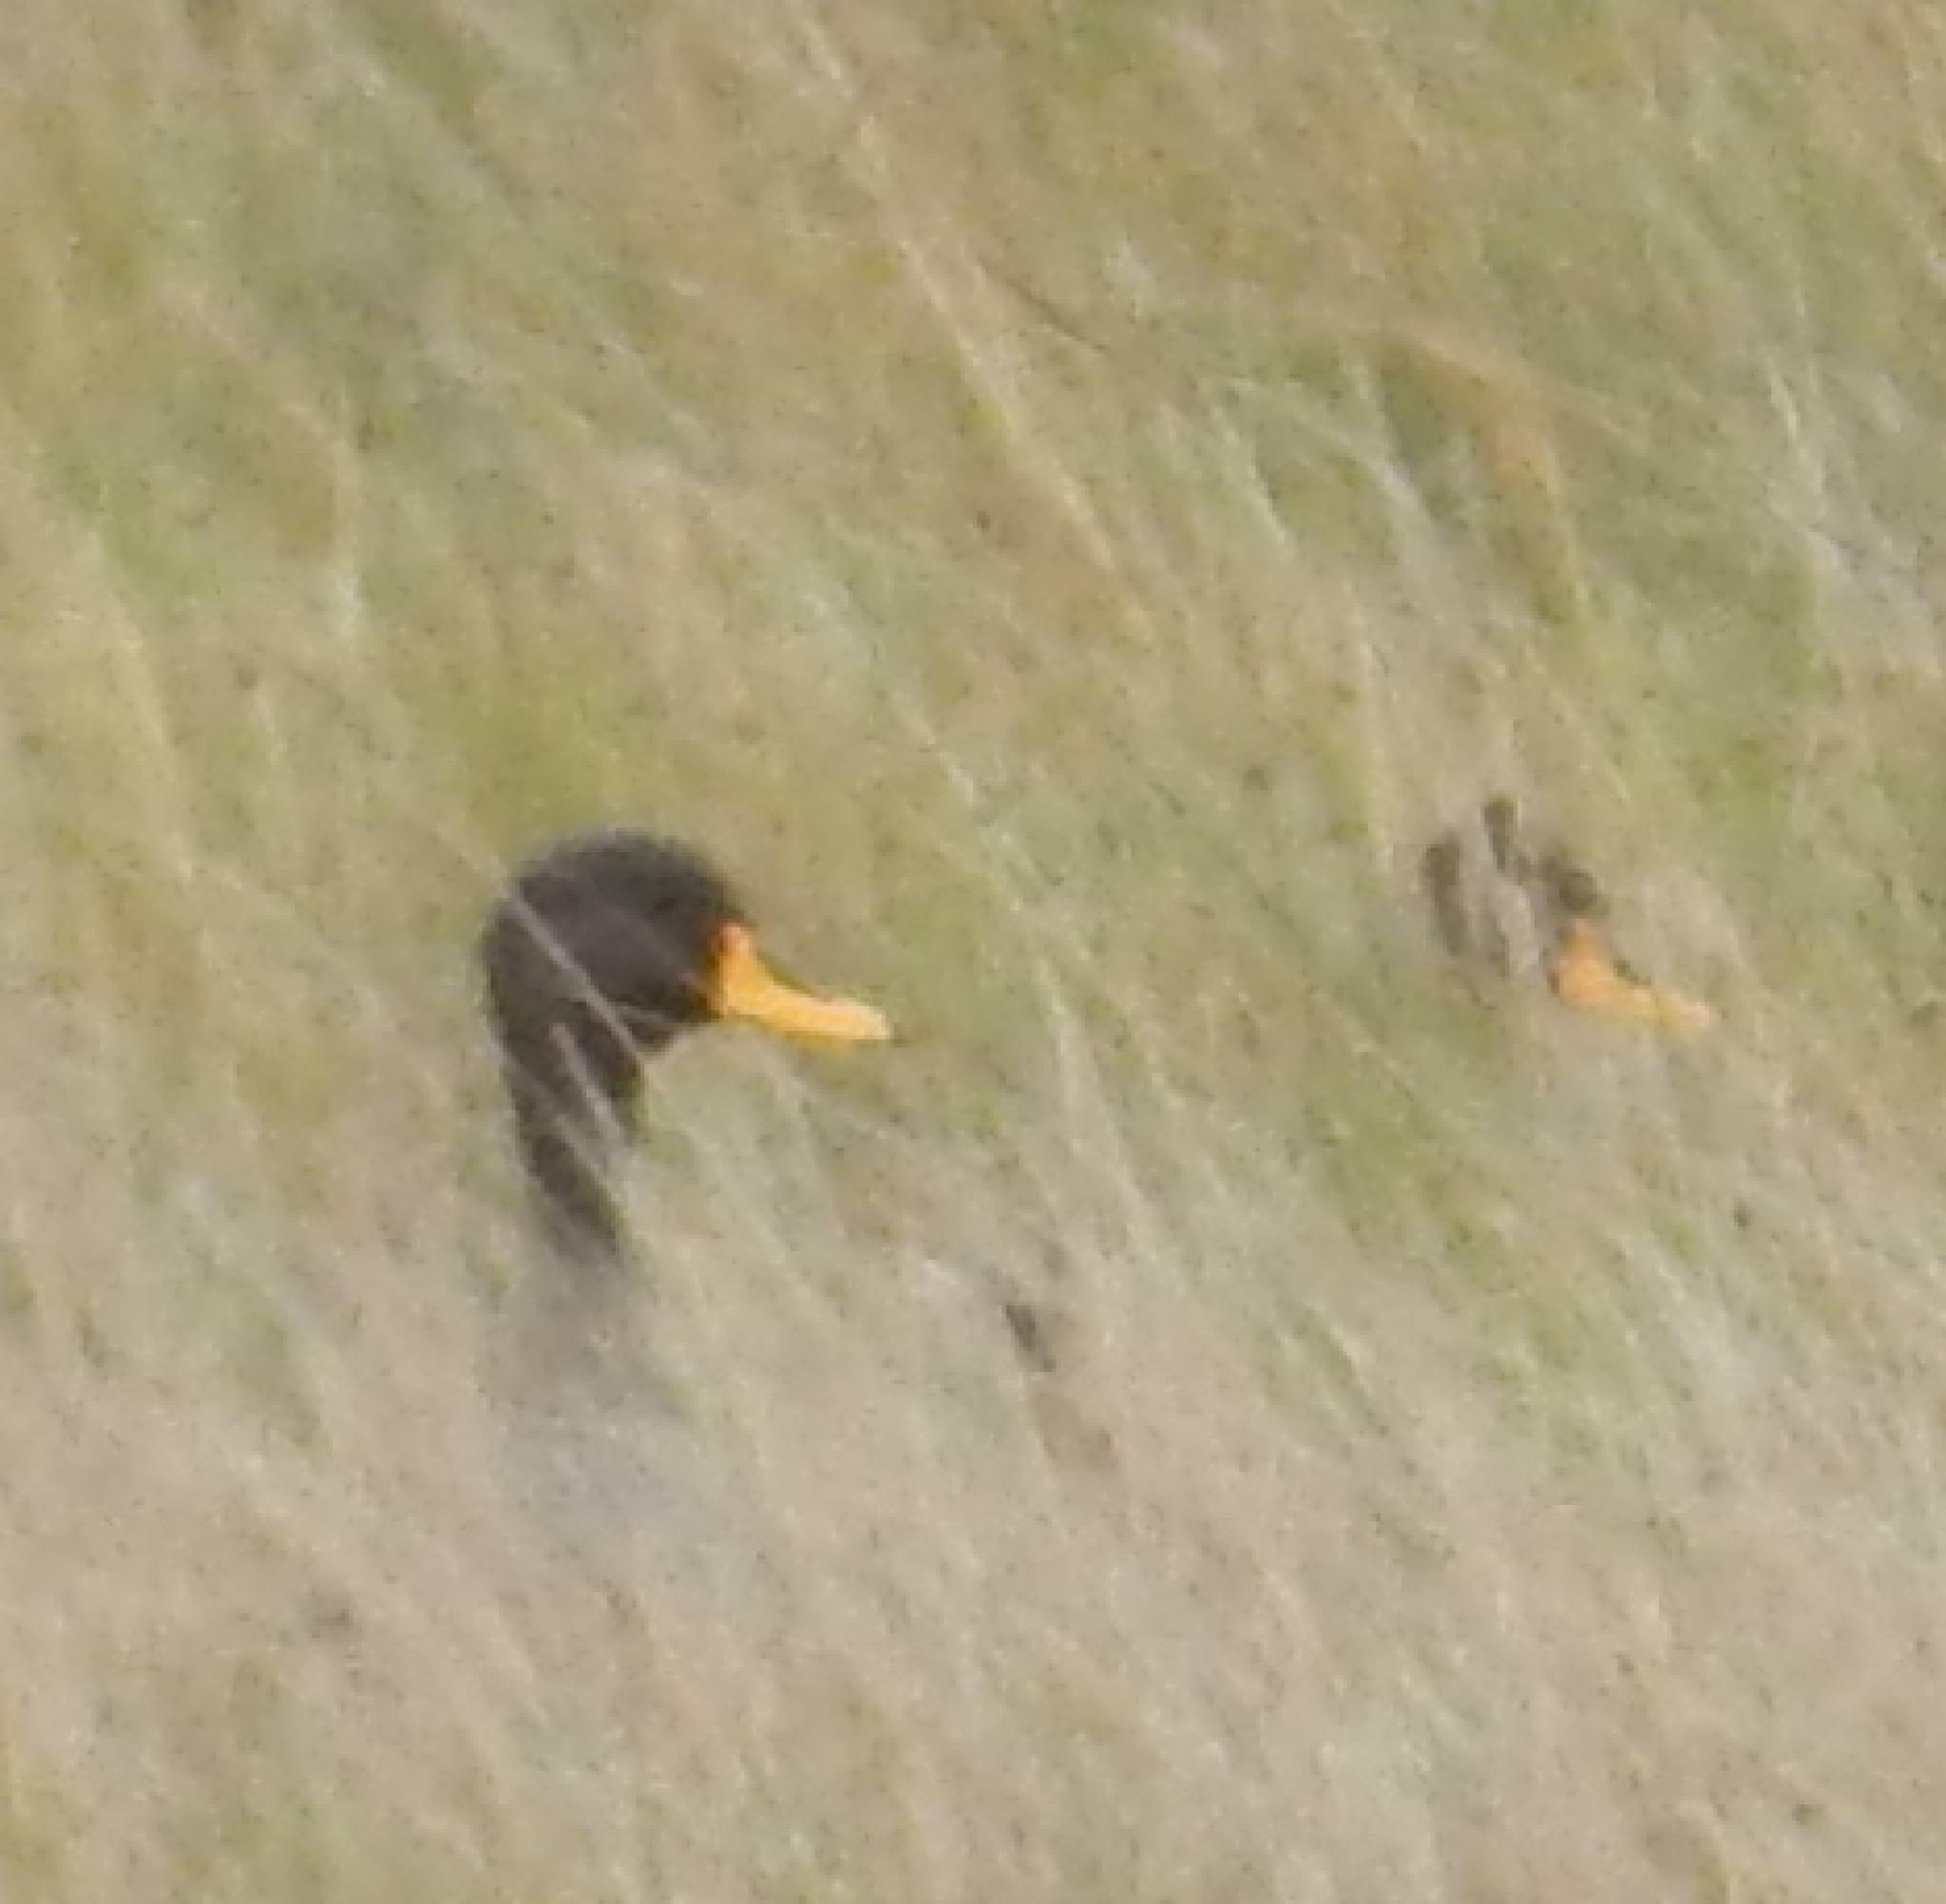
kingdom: Animalia
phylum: Chordata
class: Aves
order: Anseriformes
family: Anatidae
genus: Anas
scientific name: Anas undulata
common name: Yellow-billed duck
